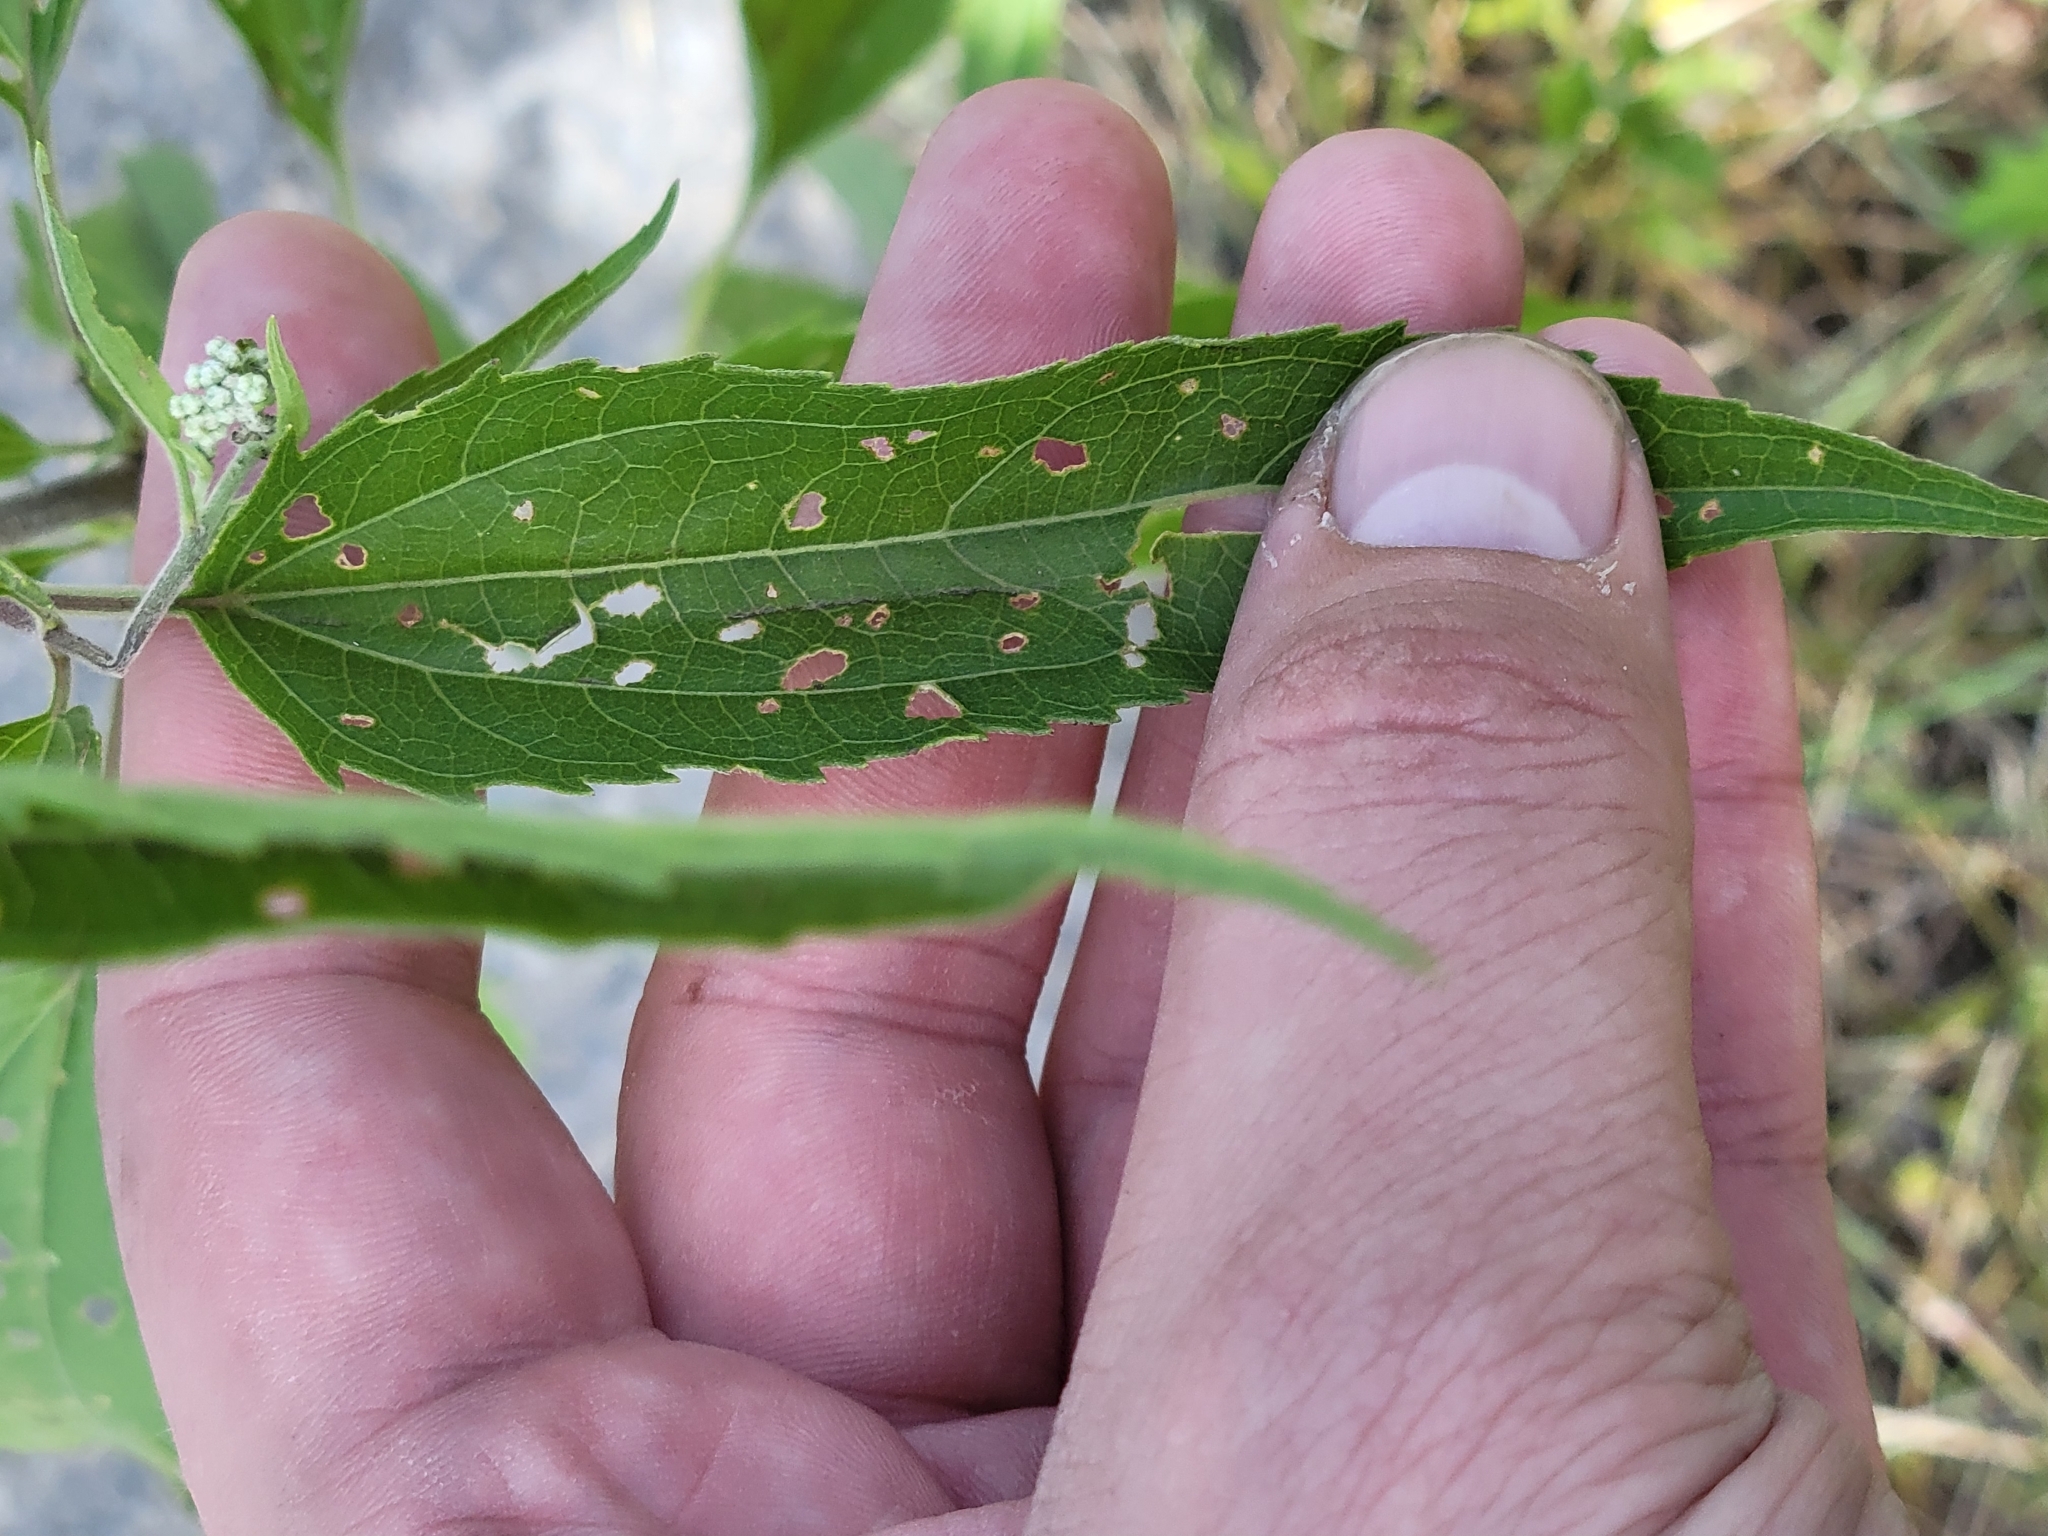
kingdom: Plantae
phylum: Tracheophyta
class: Magnoliopsida
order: Asterales
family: Asteraceae
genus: Eupatorium
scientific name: Eupatorium serotinum
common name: Late boneset
